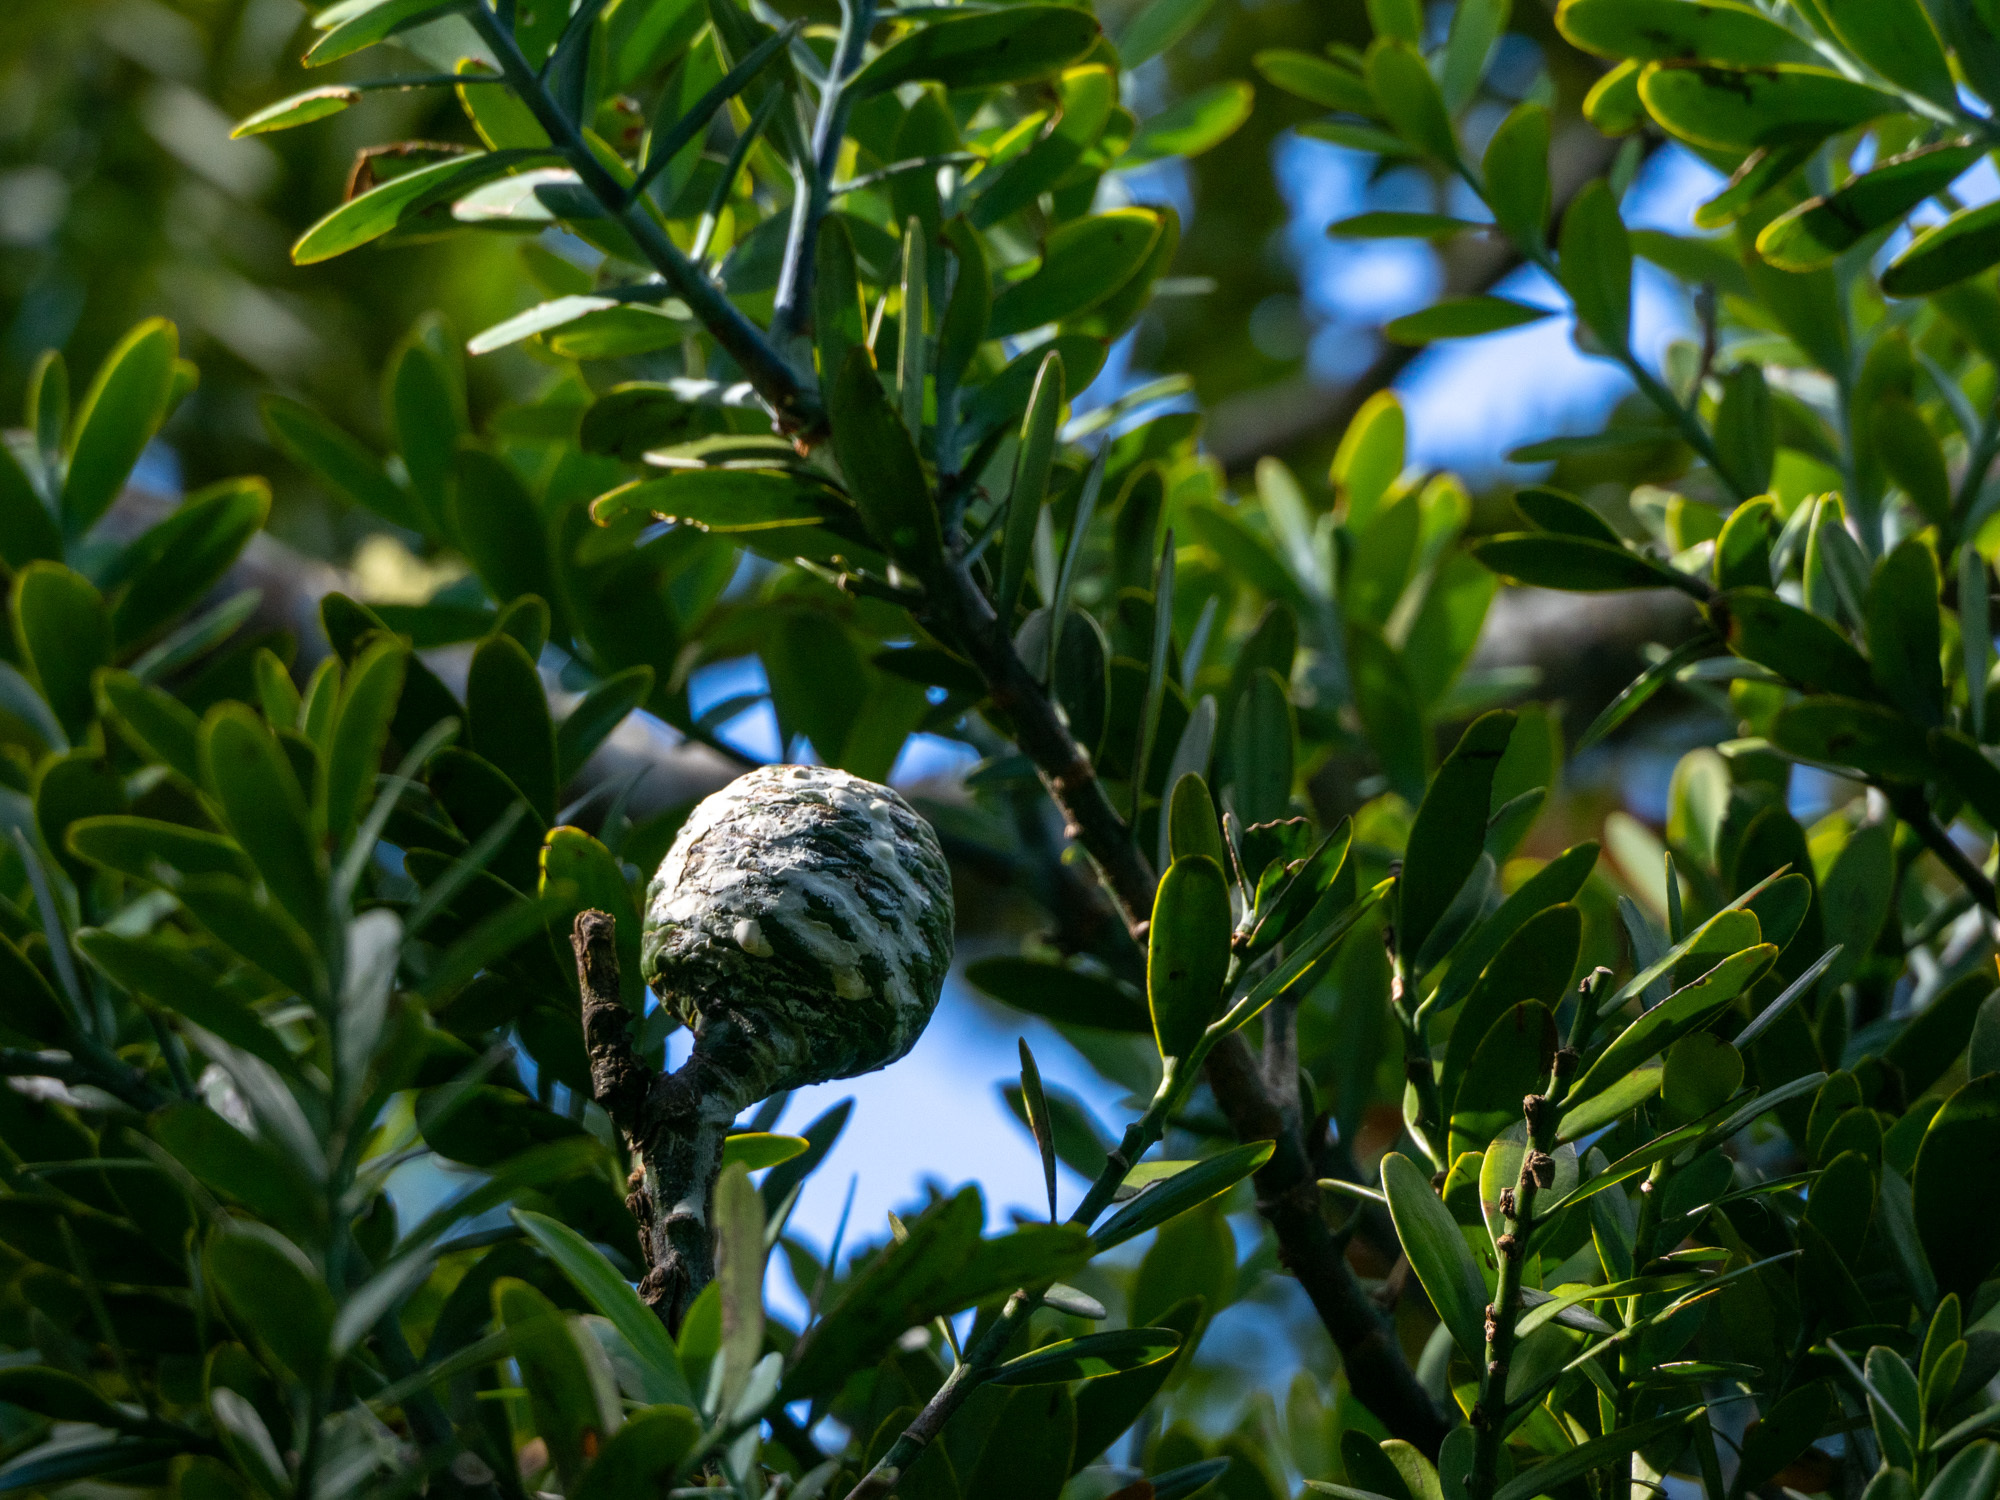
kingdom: Plantae
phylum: Tracheophyta
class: Pinopsida
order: Pinales
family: Araucariaceae
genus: Agathis
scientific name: Agathis australis
